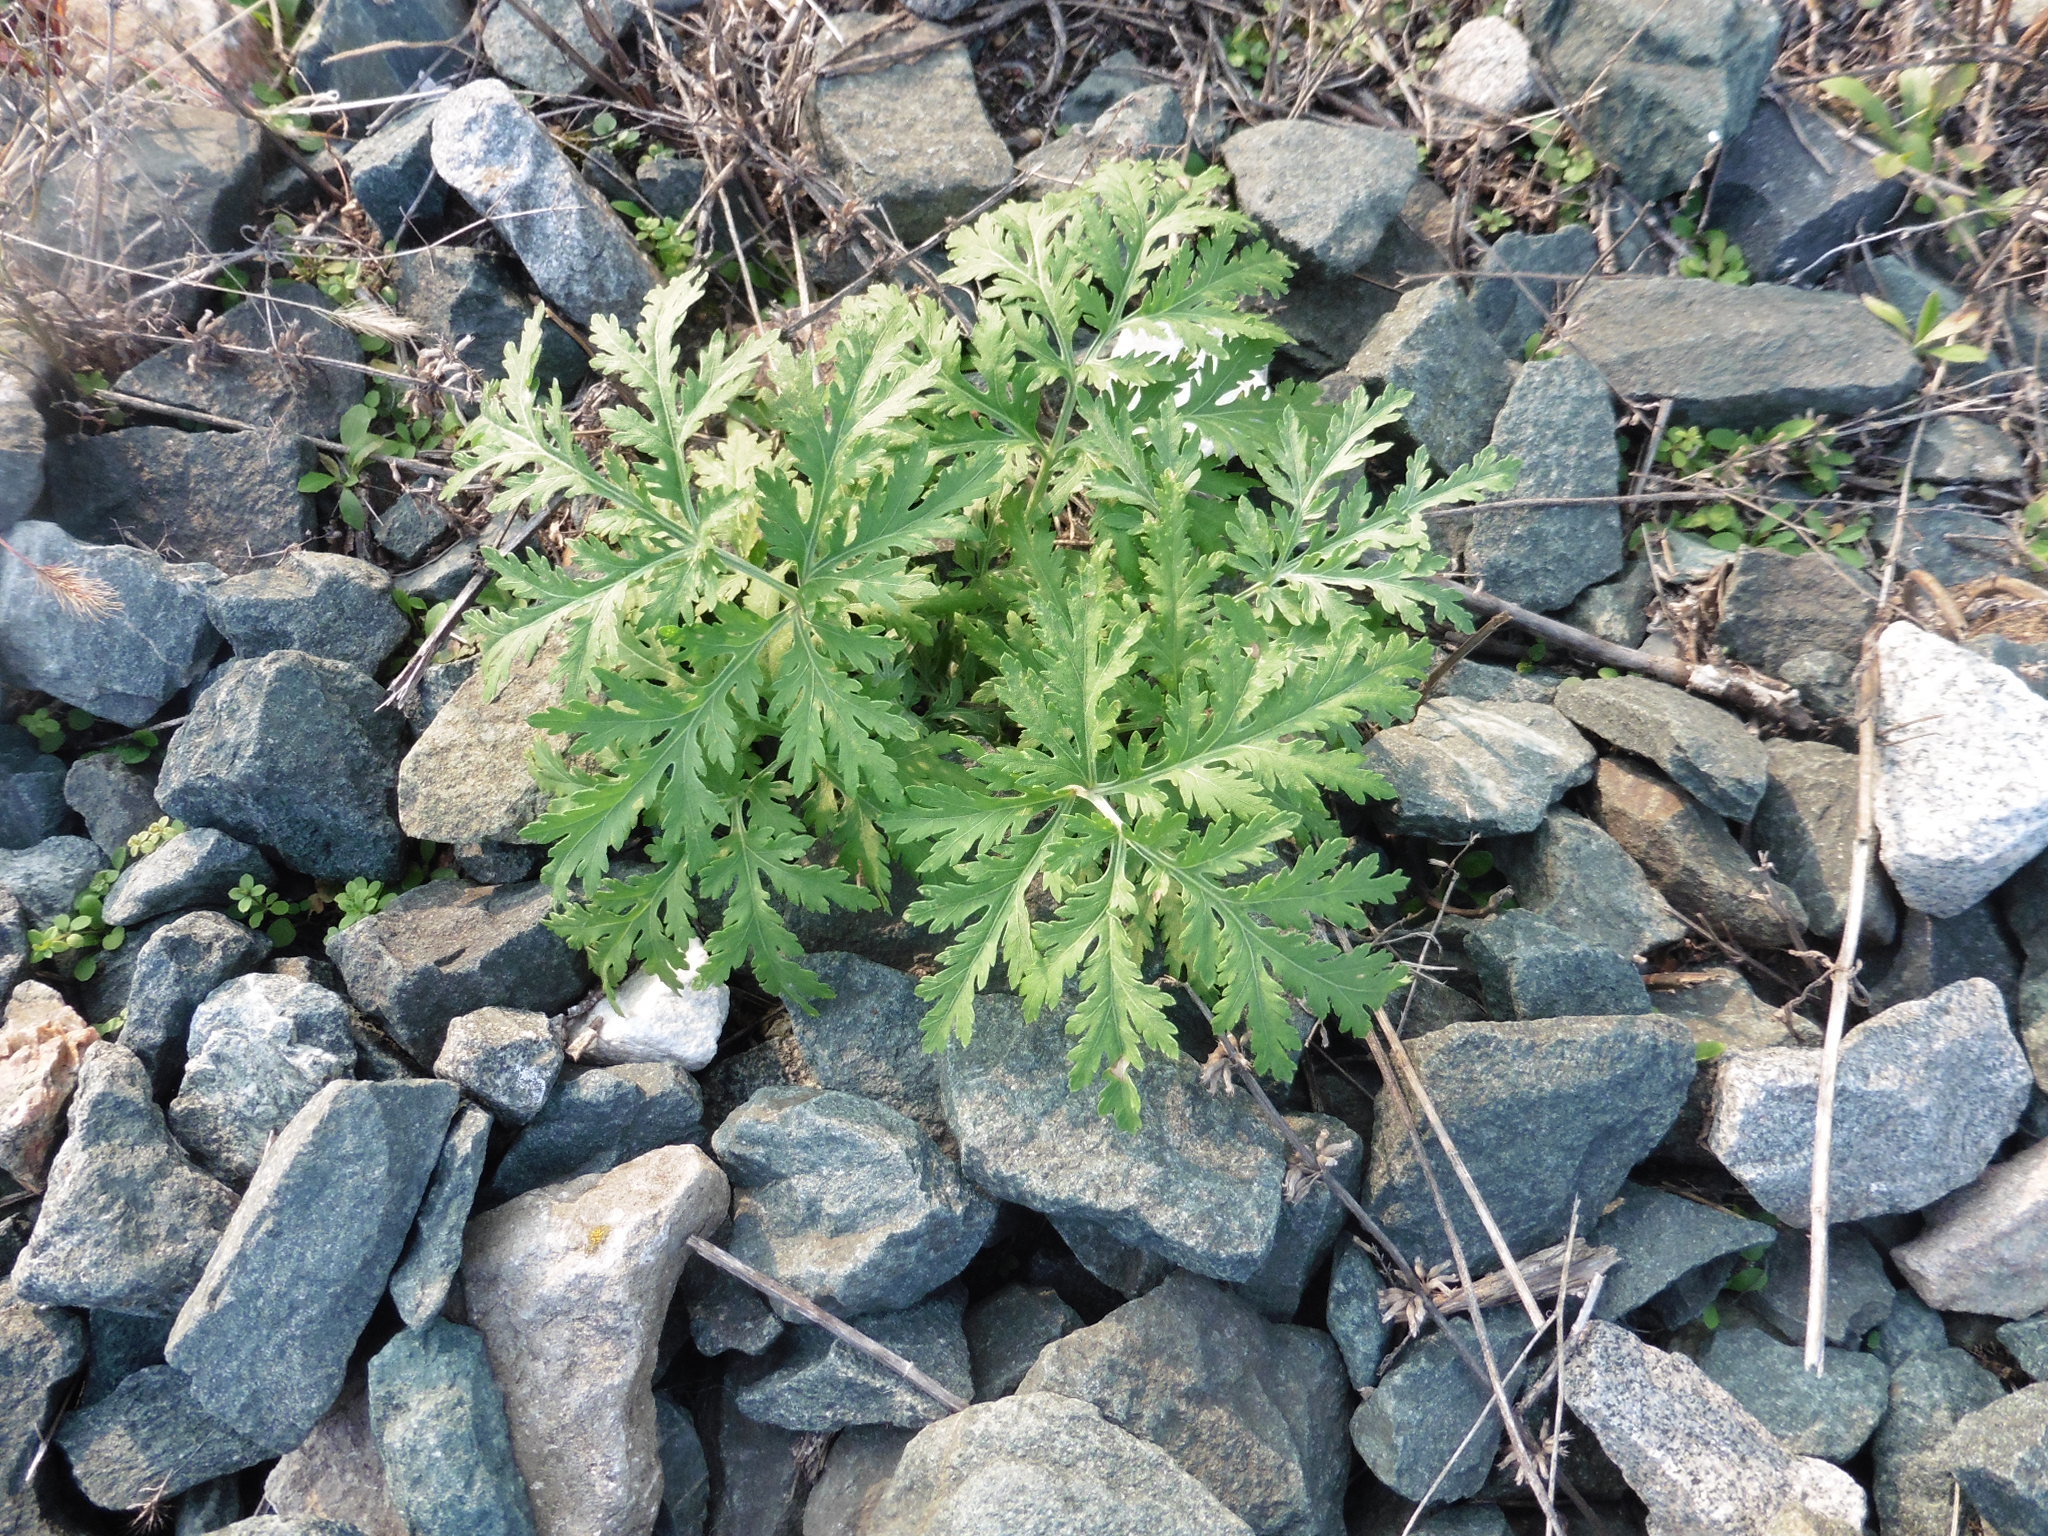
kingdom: Plantae
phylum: Tracheophyta
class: Magnoliopsida
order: Asterales
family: Asteraceae
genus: Artemisia
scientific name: Artemisia sieversiana
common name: Sieversian wormwood
